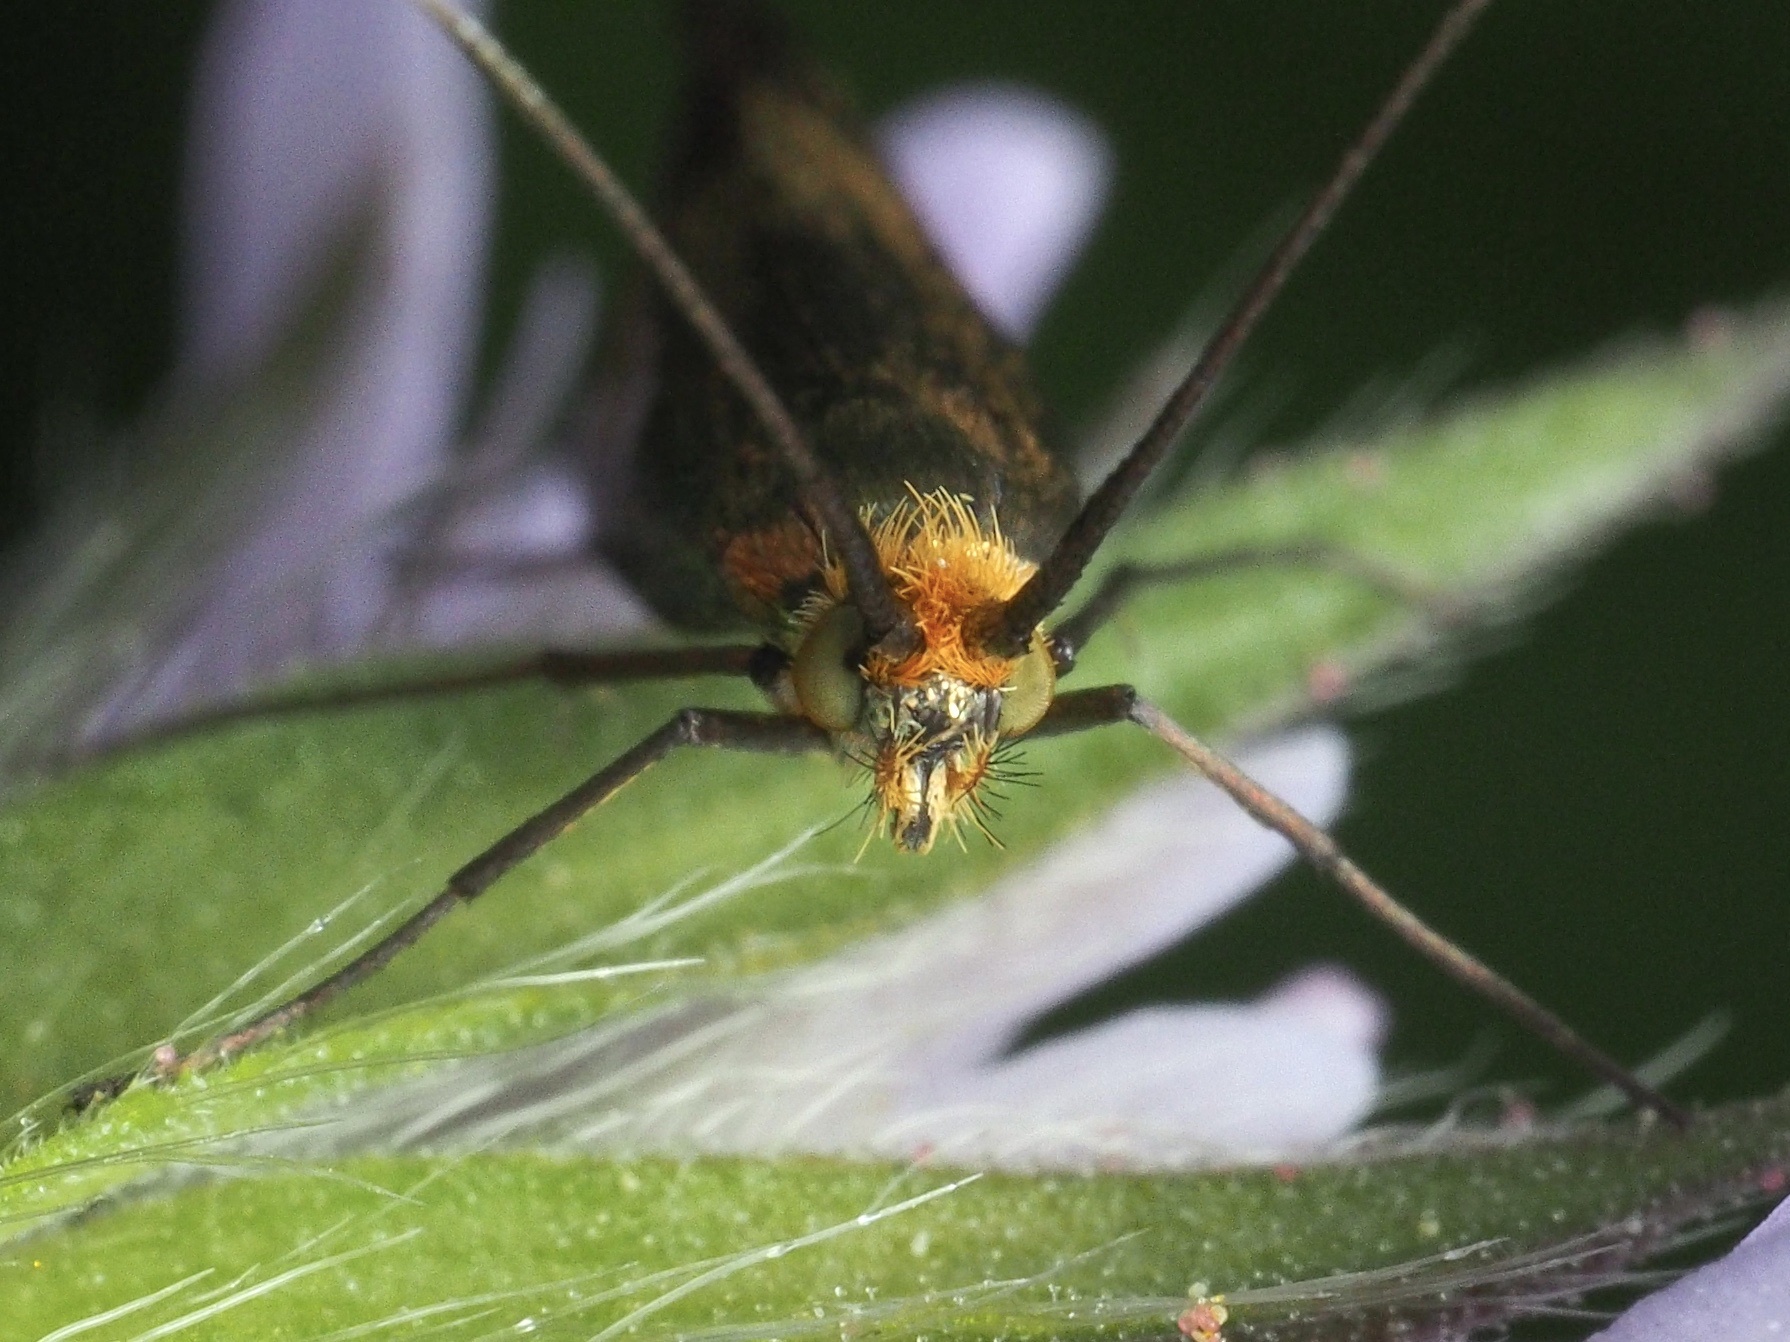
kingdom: Animalia
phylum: Arthropoda
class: Insecta
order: Lepidoptera
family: Adelidae
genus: Nemophora
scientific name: Nemophora metallica
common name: Brassy long-horn
